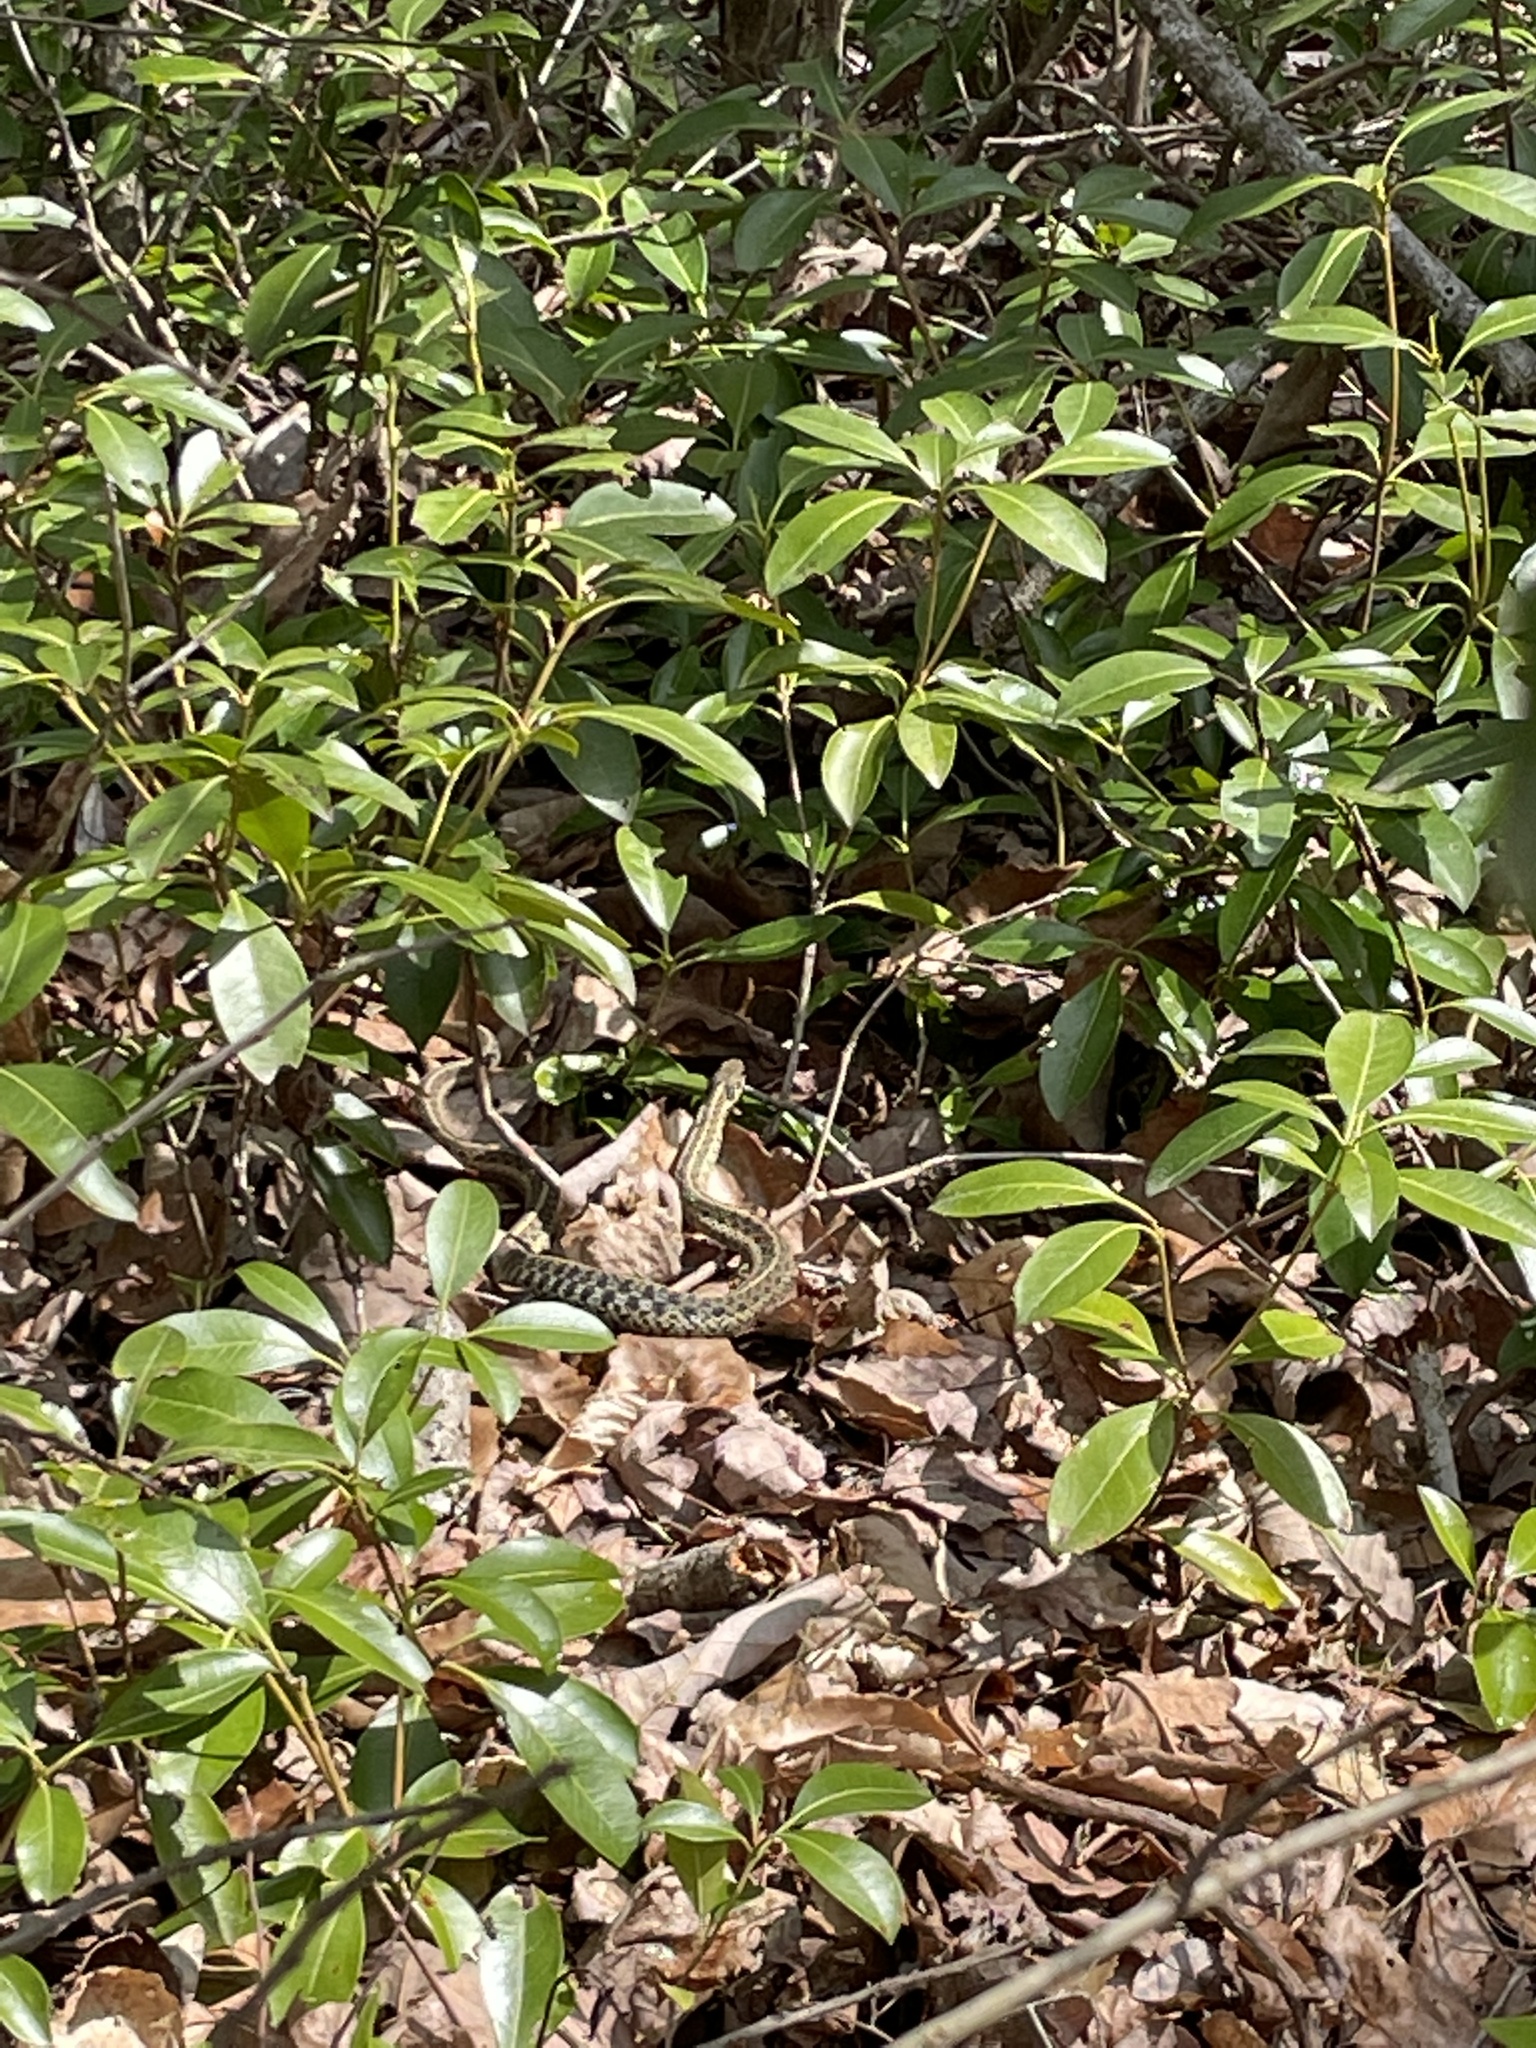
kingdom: Animalia
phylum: Chordata
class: Squamata
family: Colubridae
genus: Thamnophis
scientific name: Thamnophis sirtalis
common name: Common garter snake
